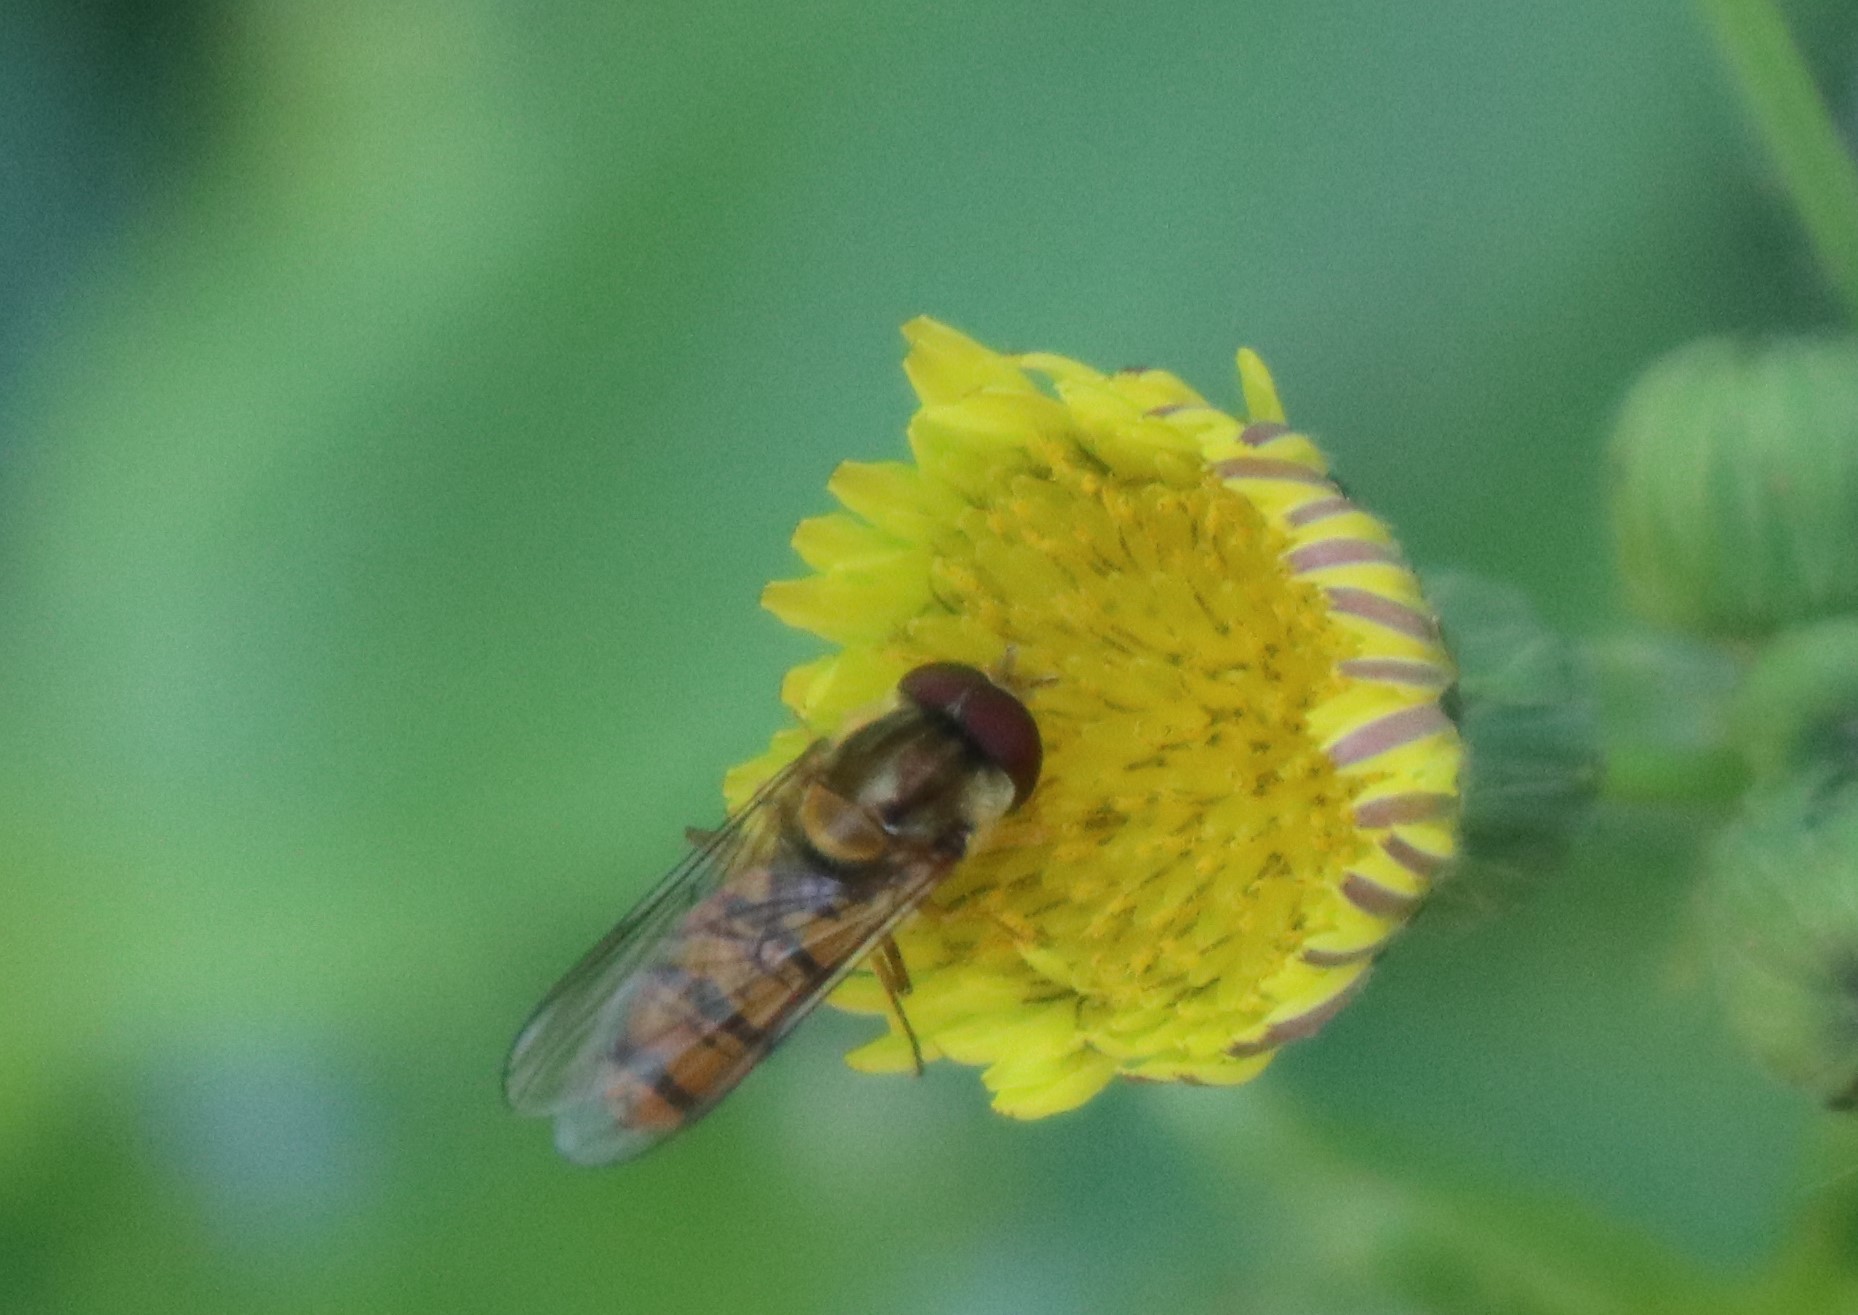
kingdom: Animalia
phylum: Arthropoda
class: Insecta
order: Diptera
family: Syrphidae
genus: Episyrphus
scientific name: Episyrphus balteatus
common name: Marmalade hoverfly
